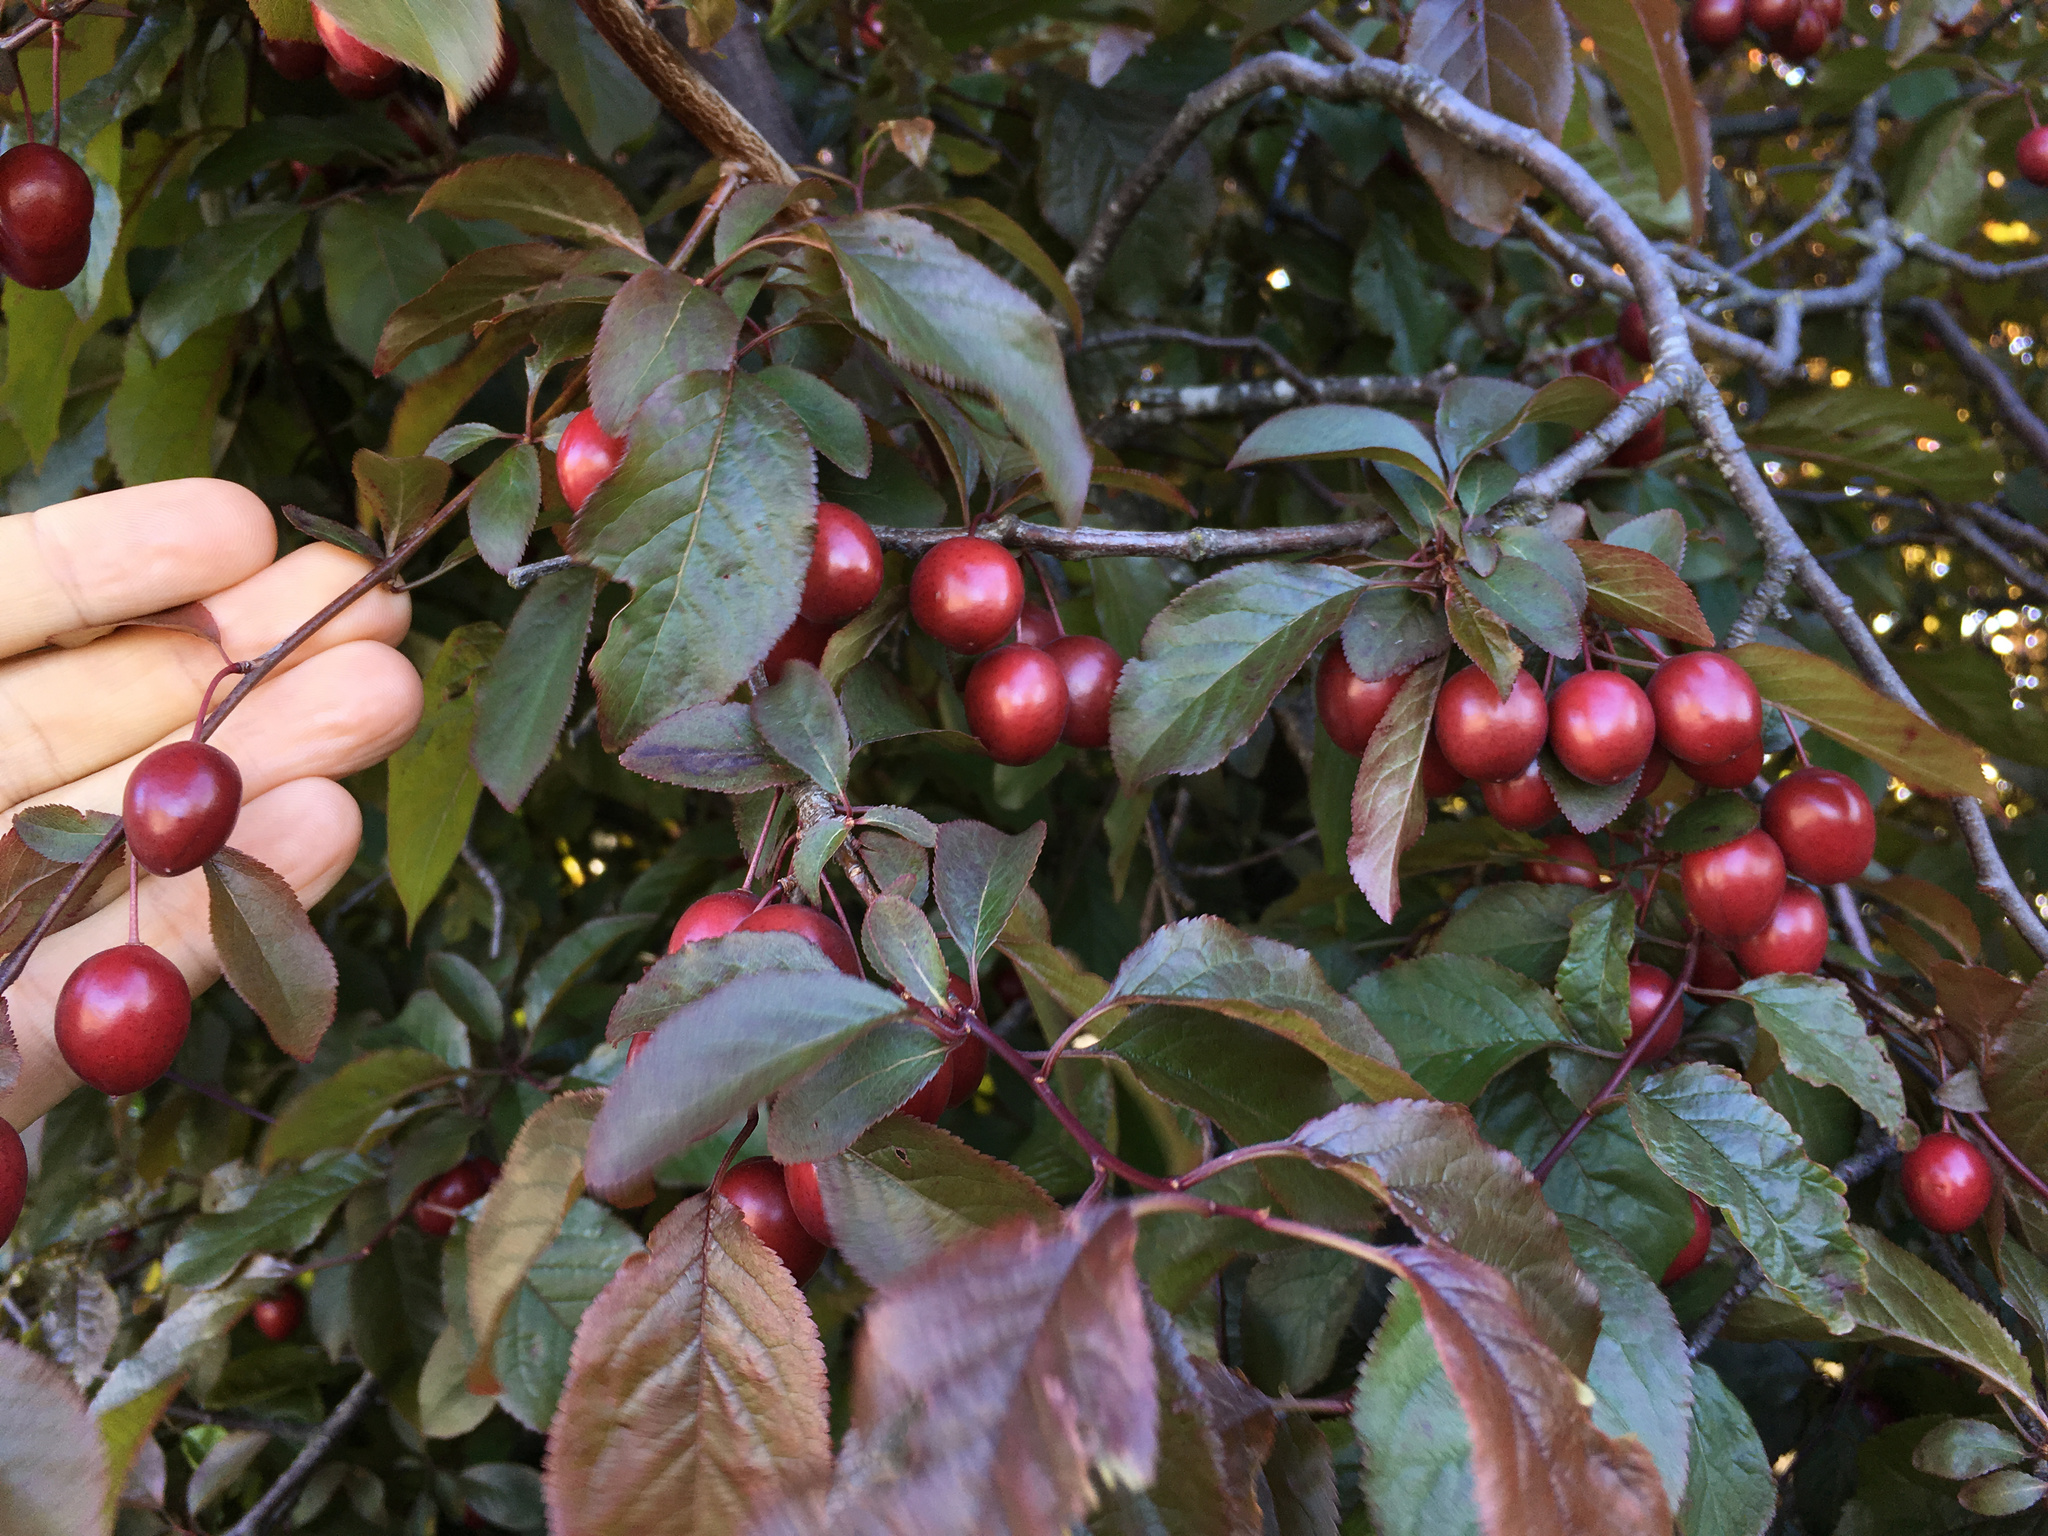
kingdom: Plantae
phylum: Tracheophyta
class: Magnoliopsida
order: Rosales
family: Rosaceae
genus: Prunus
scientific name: Prunus cerasifera
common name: Cherry plum
